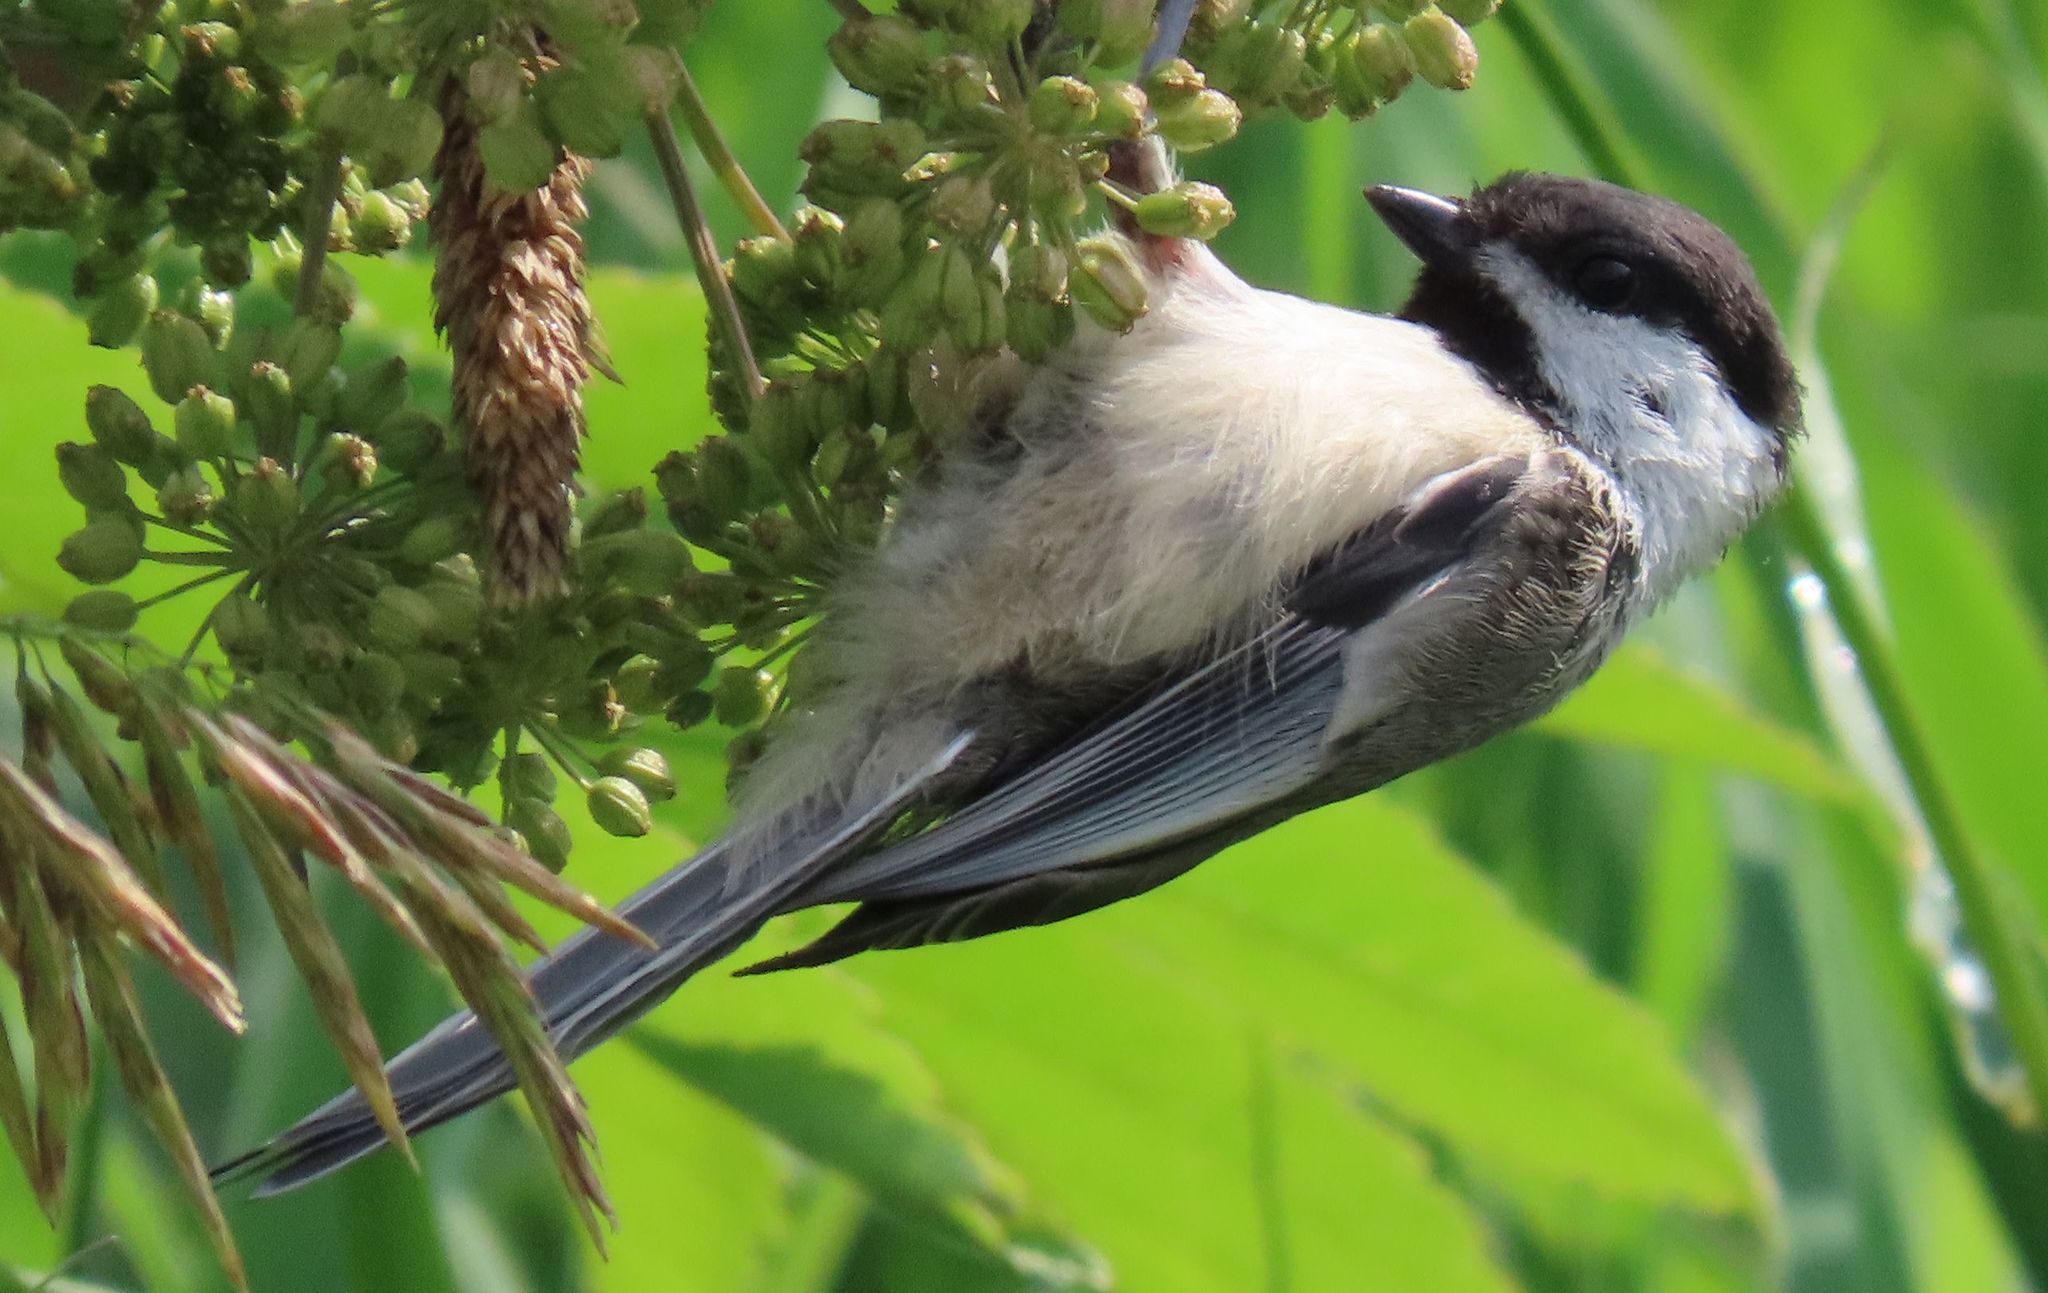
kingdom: Animalia
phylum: Chordata
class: Aves
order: Passeriformes
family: Paridae
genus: Poecile
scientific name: Poecile atricapillus
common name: Black-capped chickadee
